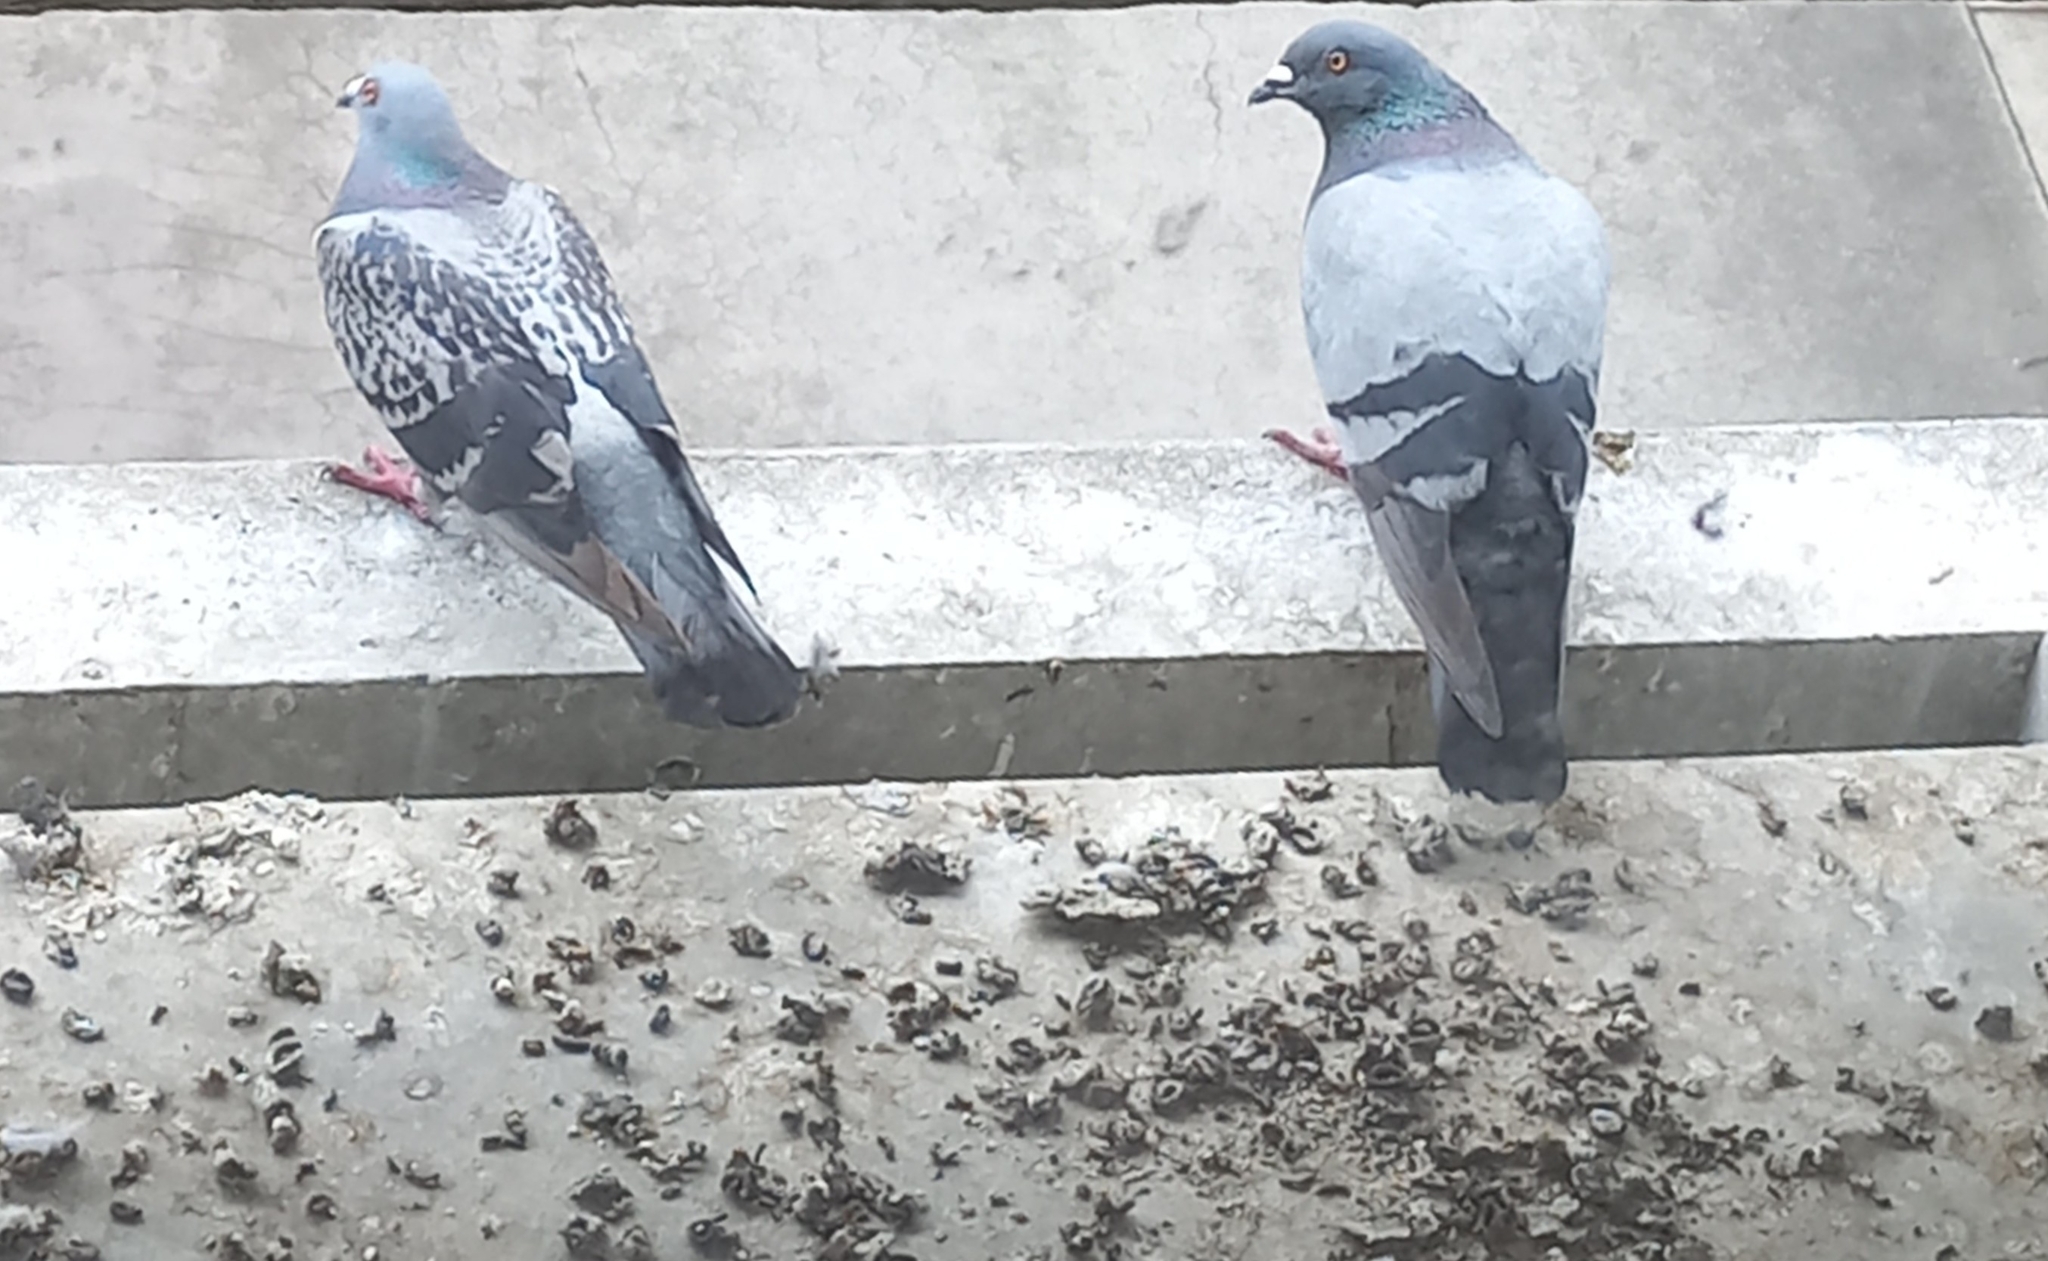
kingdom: Animalia
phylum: Chordata
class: Aves
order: Columbiformes
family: Columbidae
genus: Columba
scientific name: Columba livia
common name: Rock pigeon
